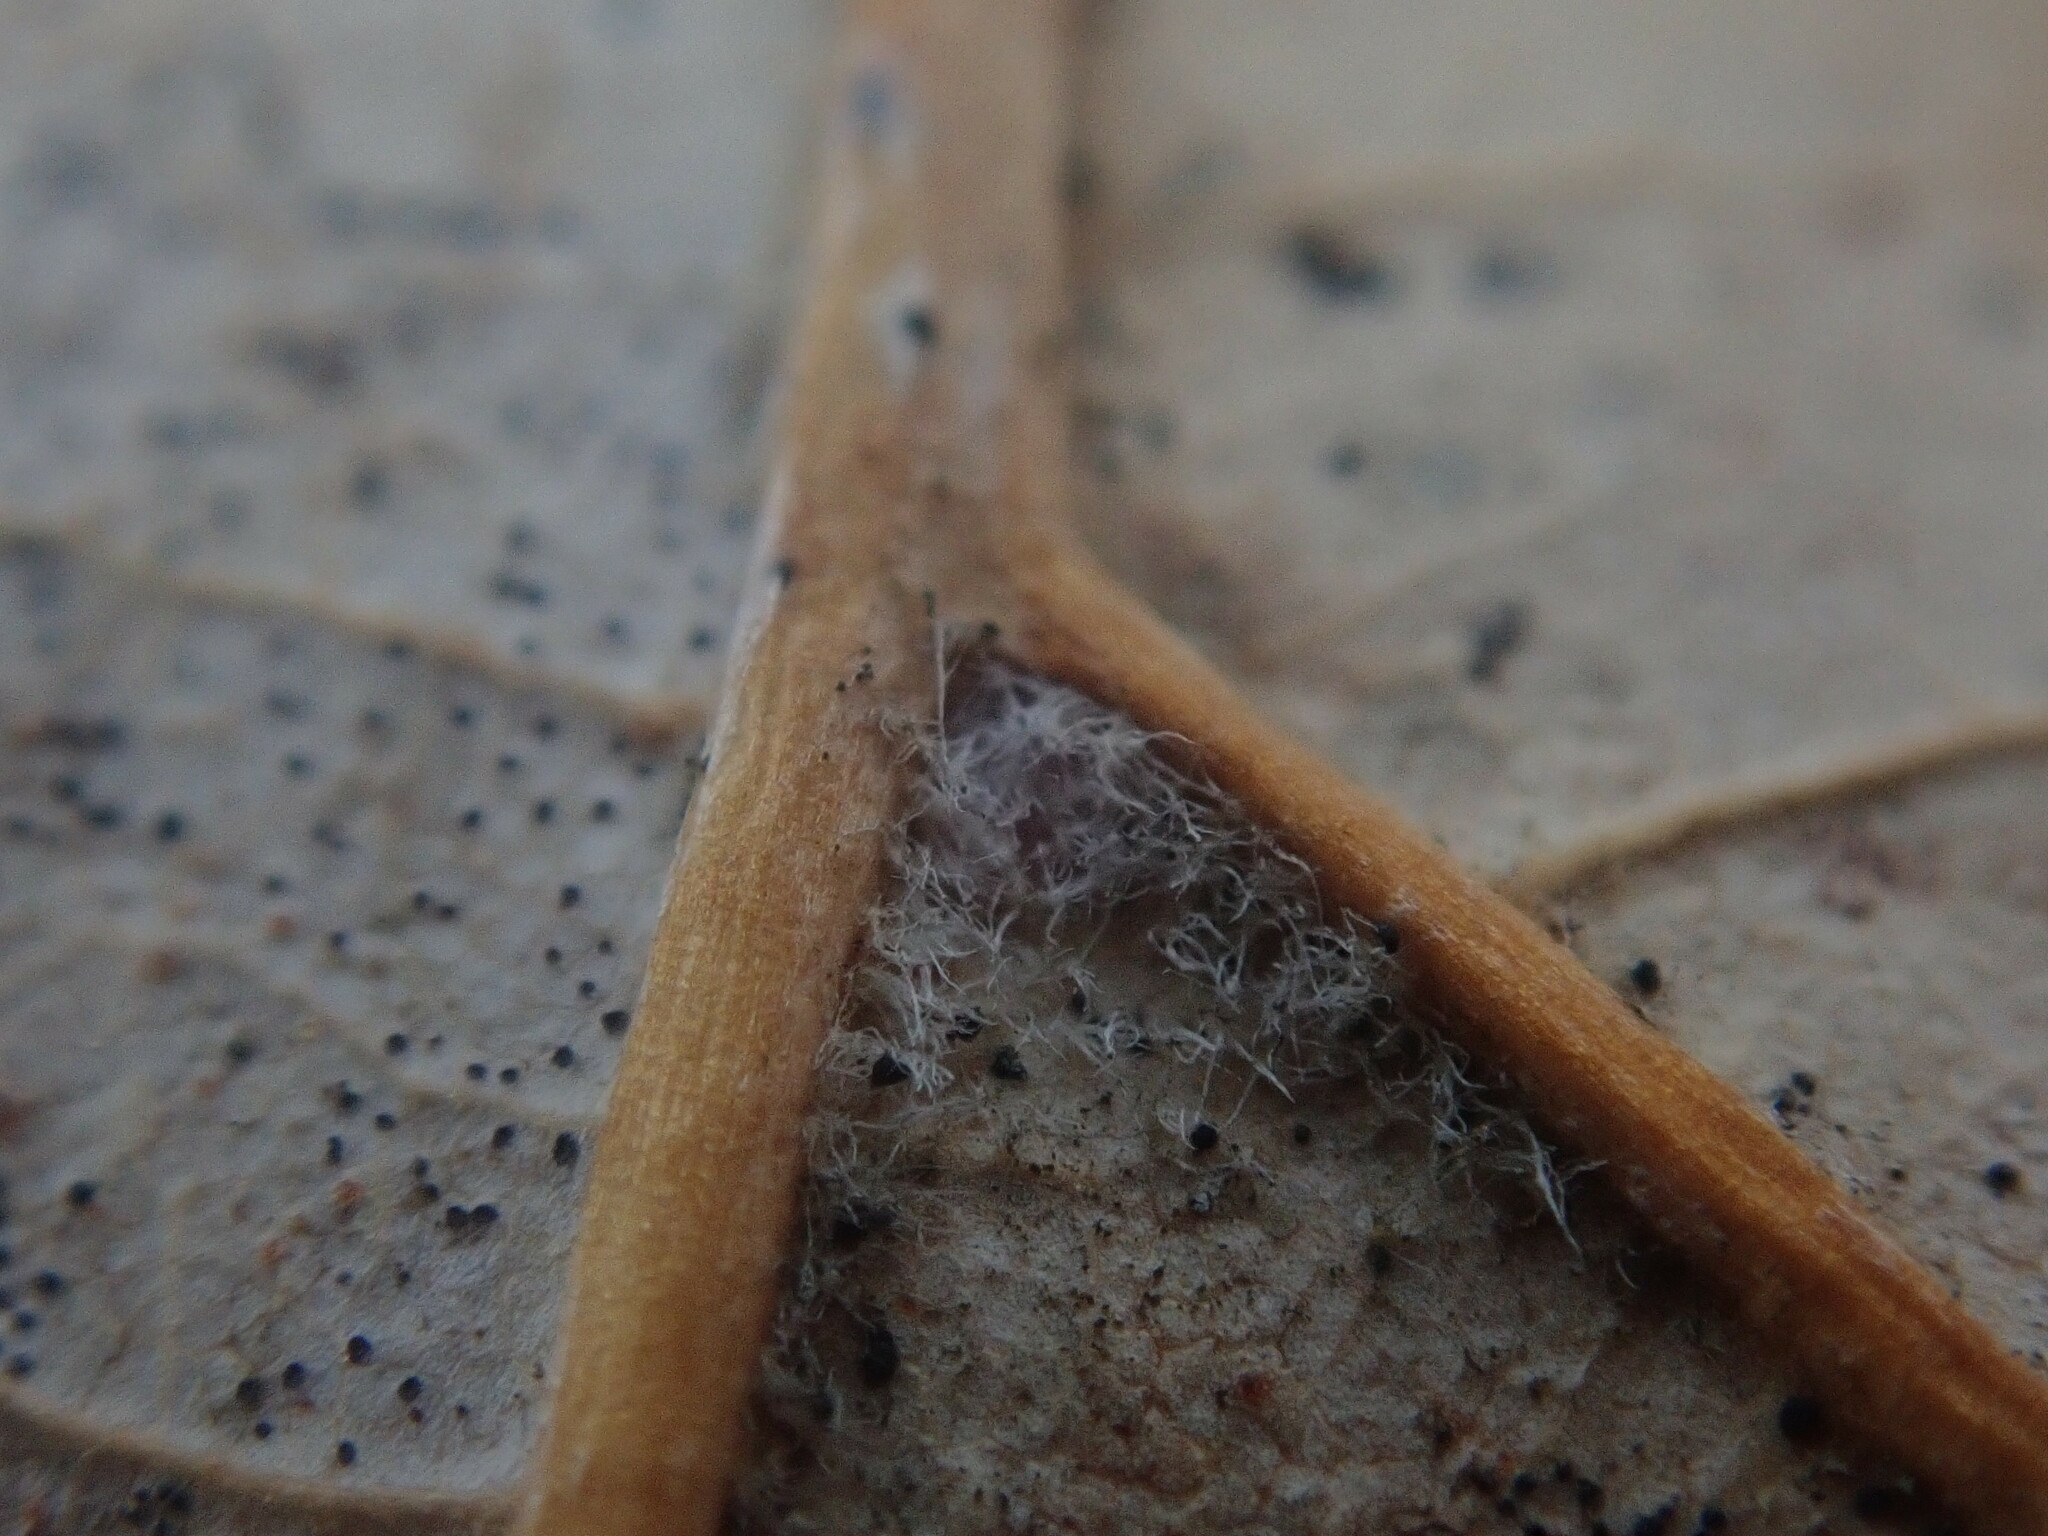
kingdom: Plantae
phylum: Tracheophyta
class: Magnoliopsida
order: Fagales
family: Fagaceae
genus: Quercus
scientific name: Quercus velutina
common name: Black oak
